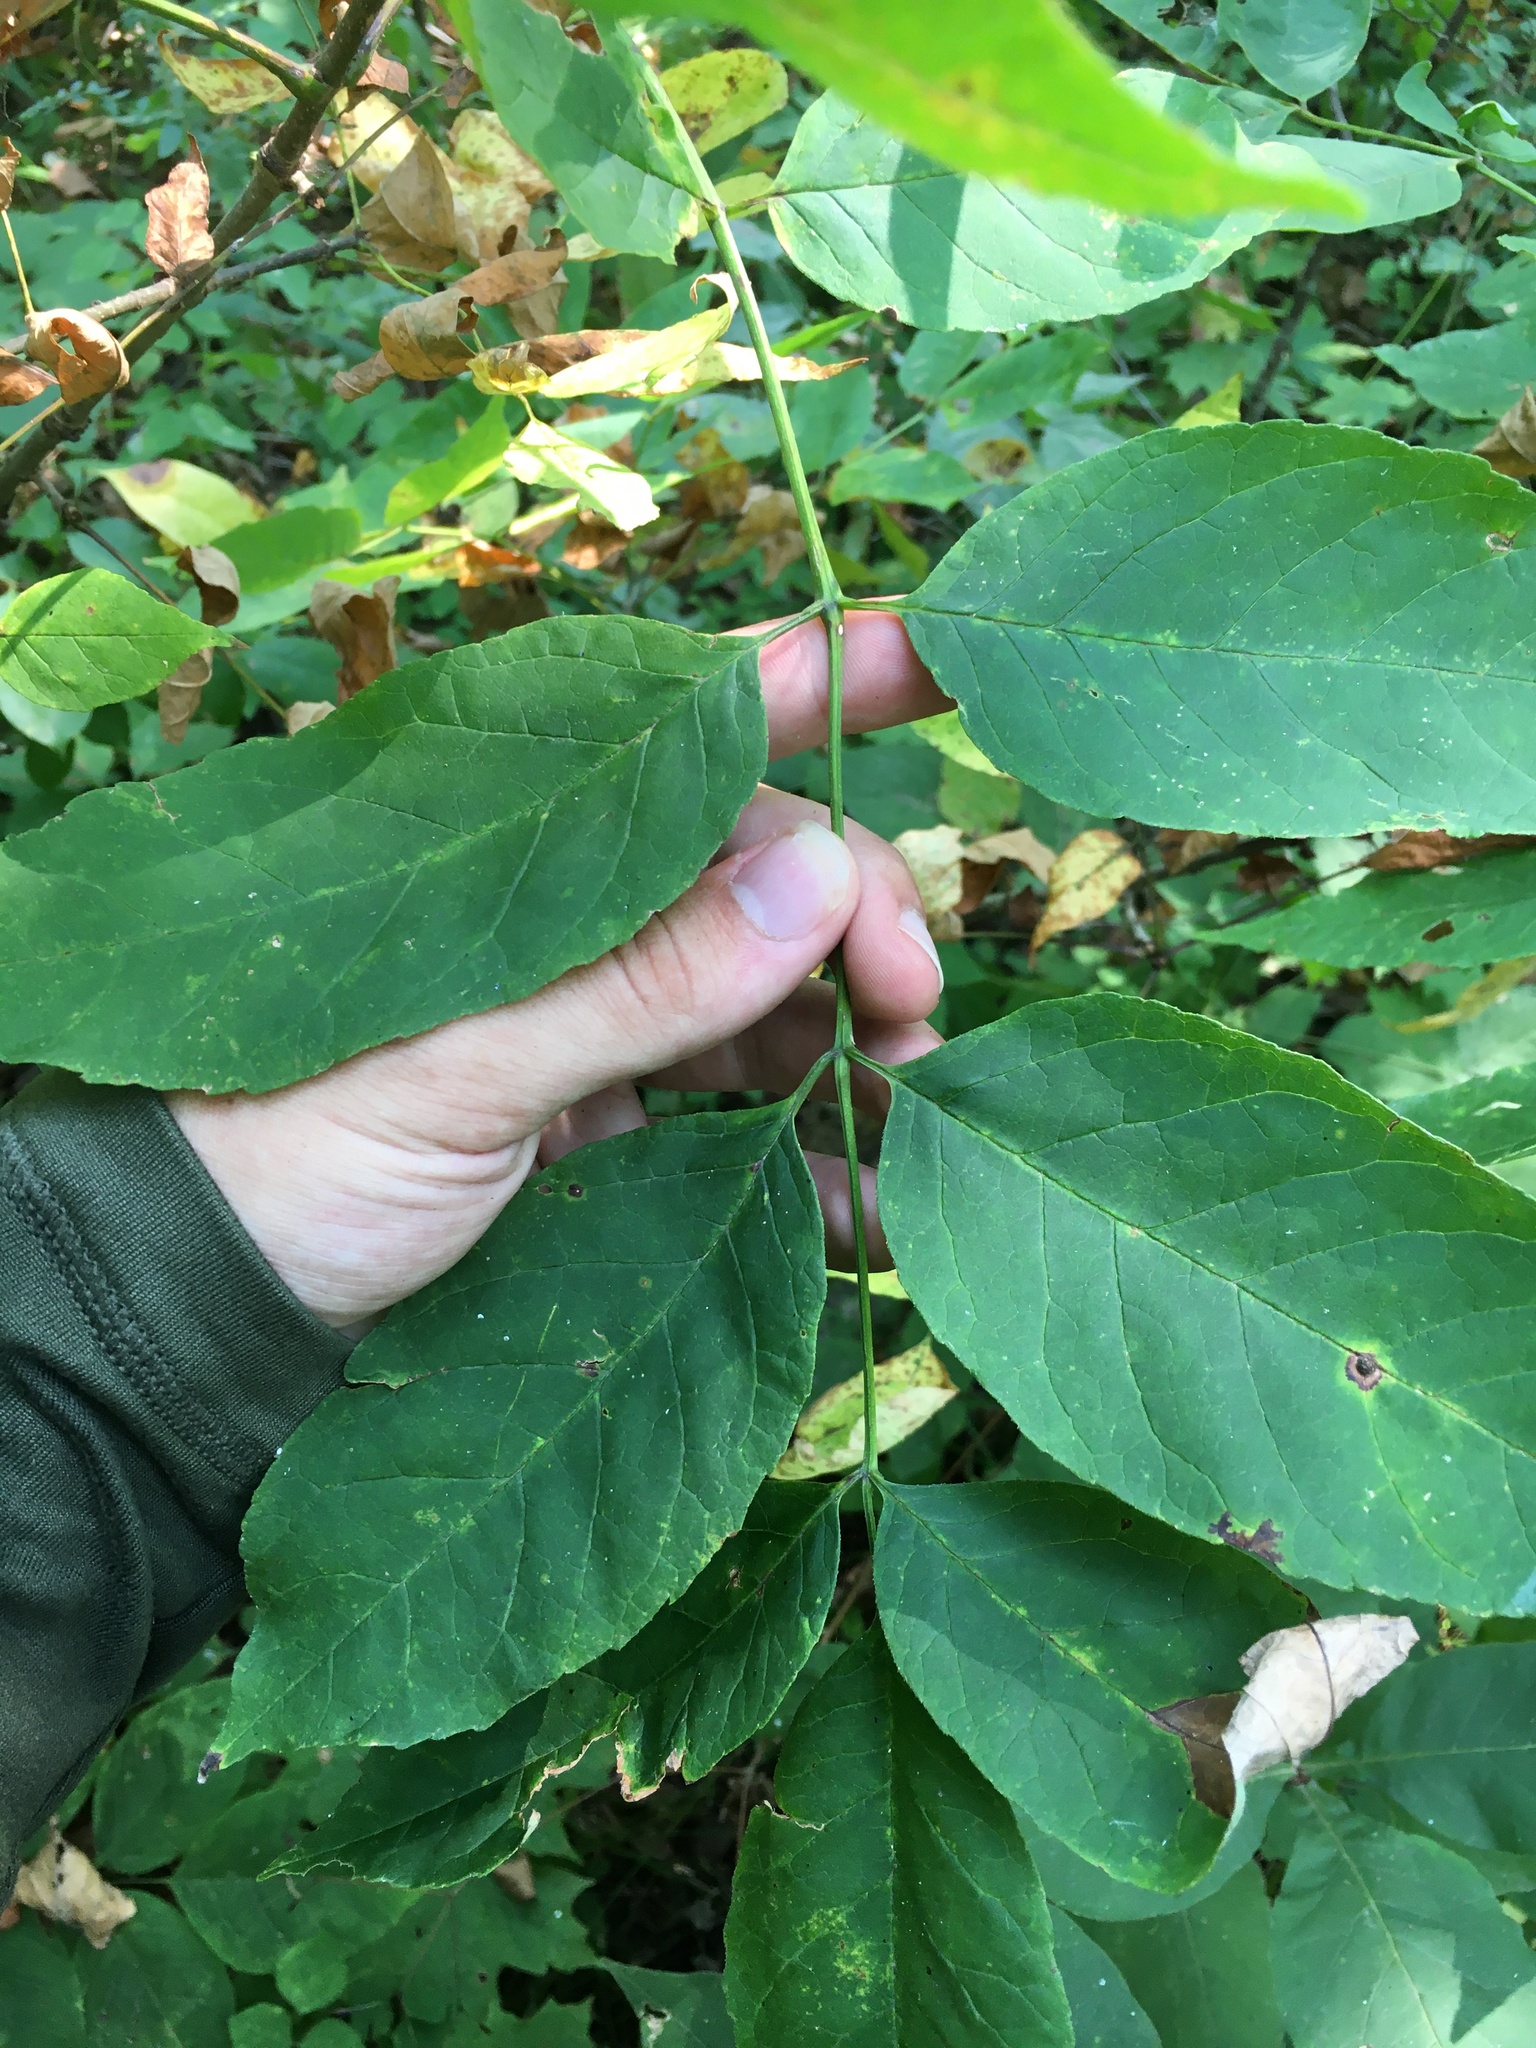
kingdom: Plantae
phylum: Tracheophyta
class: Magnoliopsida
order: Lamiales
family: Oleaceae
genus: Fraxinus
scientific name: Fraxinus americana
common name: White ash
